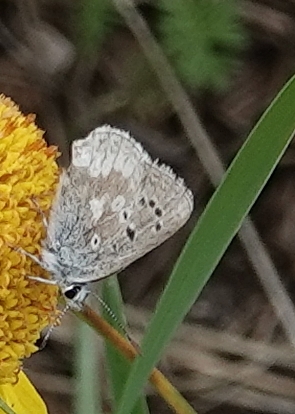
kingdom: Animalia
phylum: Arthropoda
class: Insecta
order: Lepidoptera
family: Lycaenidae
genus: Agriades
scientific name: Agriades glandon
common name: Glandon blue
